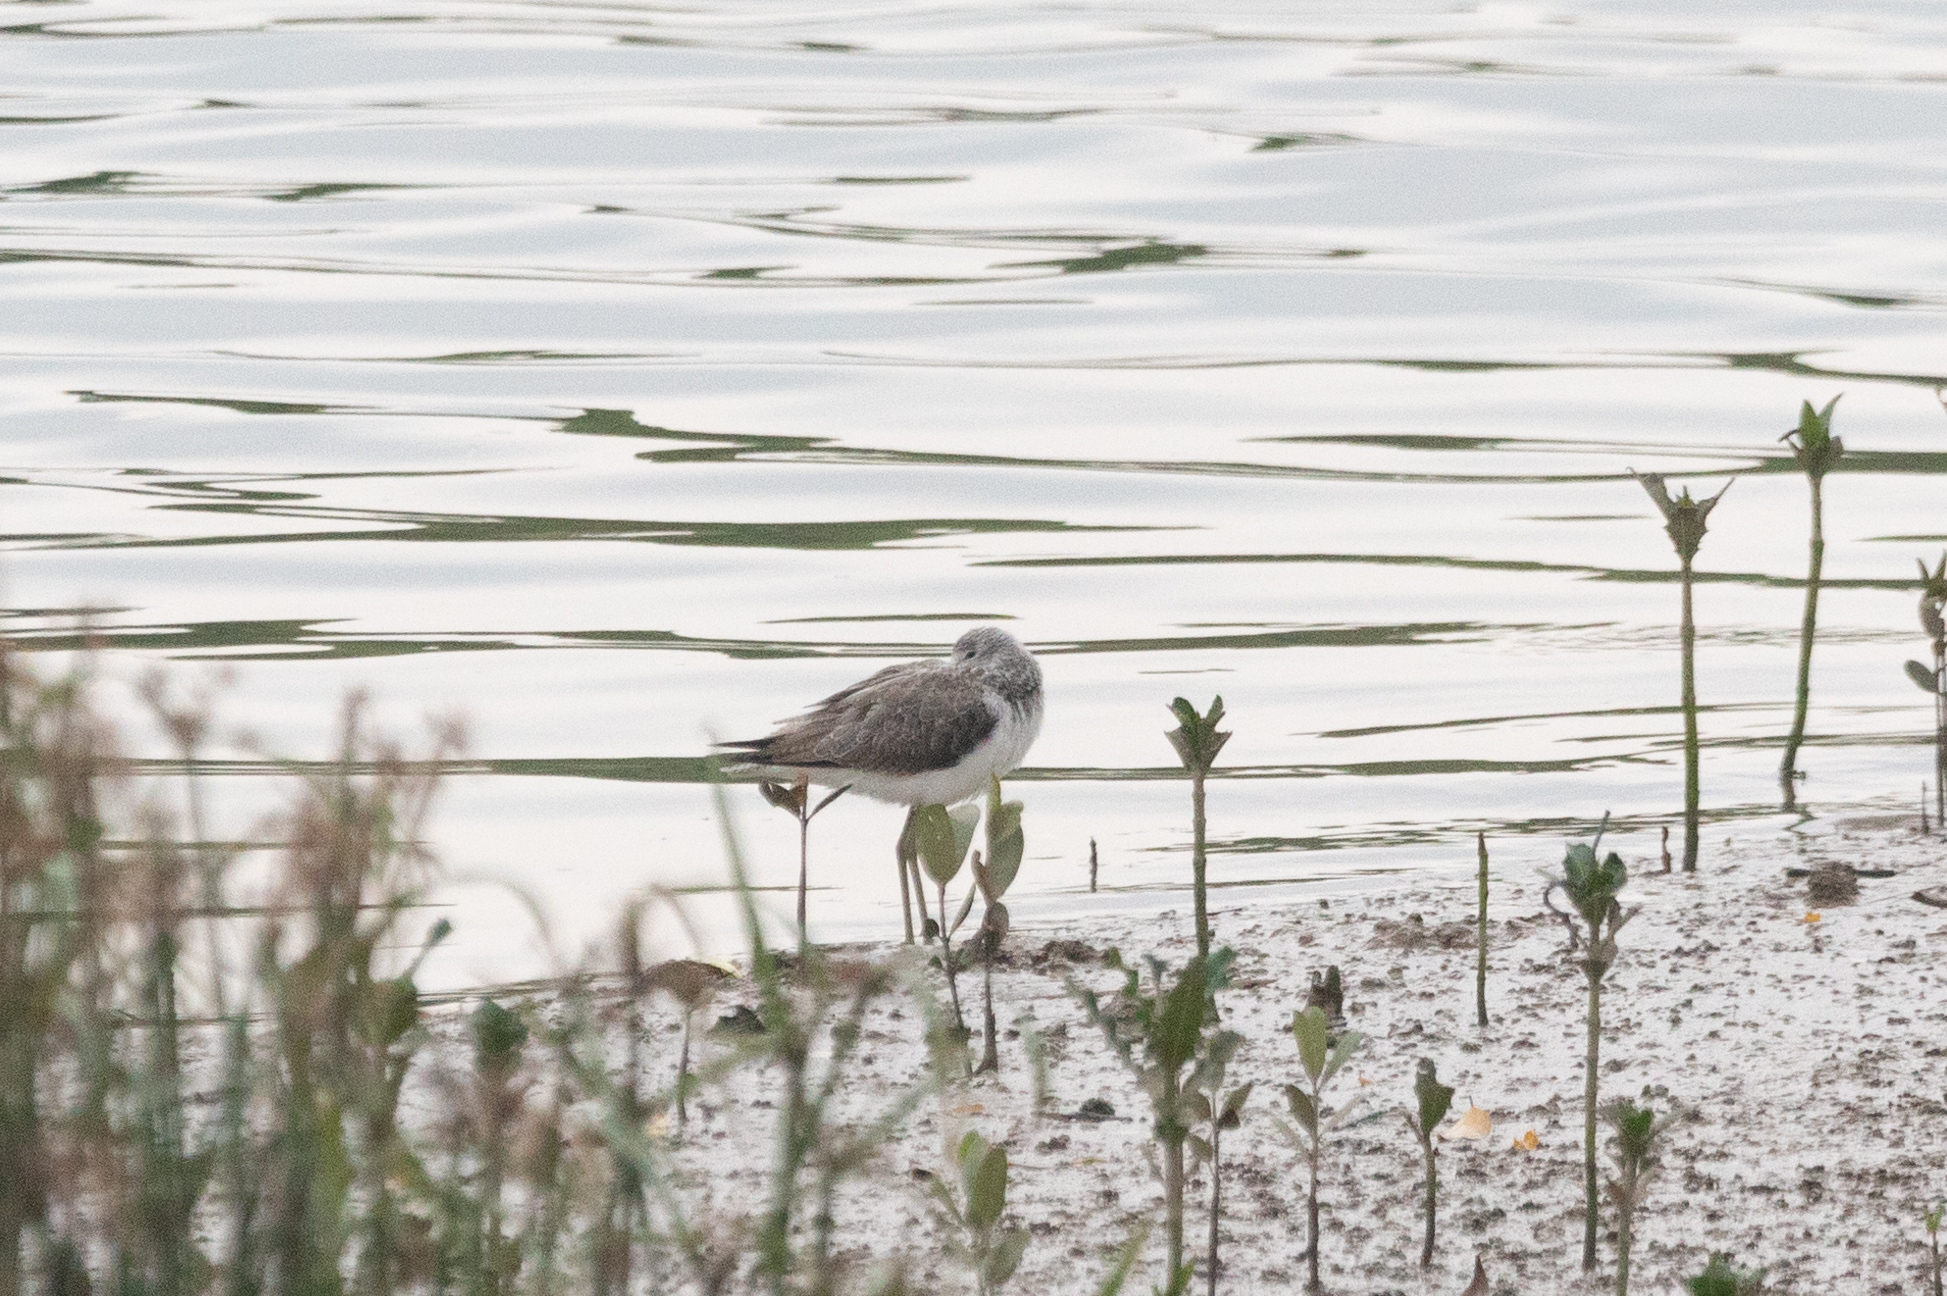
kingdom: Animalia
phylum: Chordata
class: Aves
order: Charadriiformes
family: Scolopacidae
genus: Tringa
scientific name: Tringa nebularia
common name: Common greenshank
